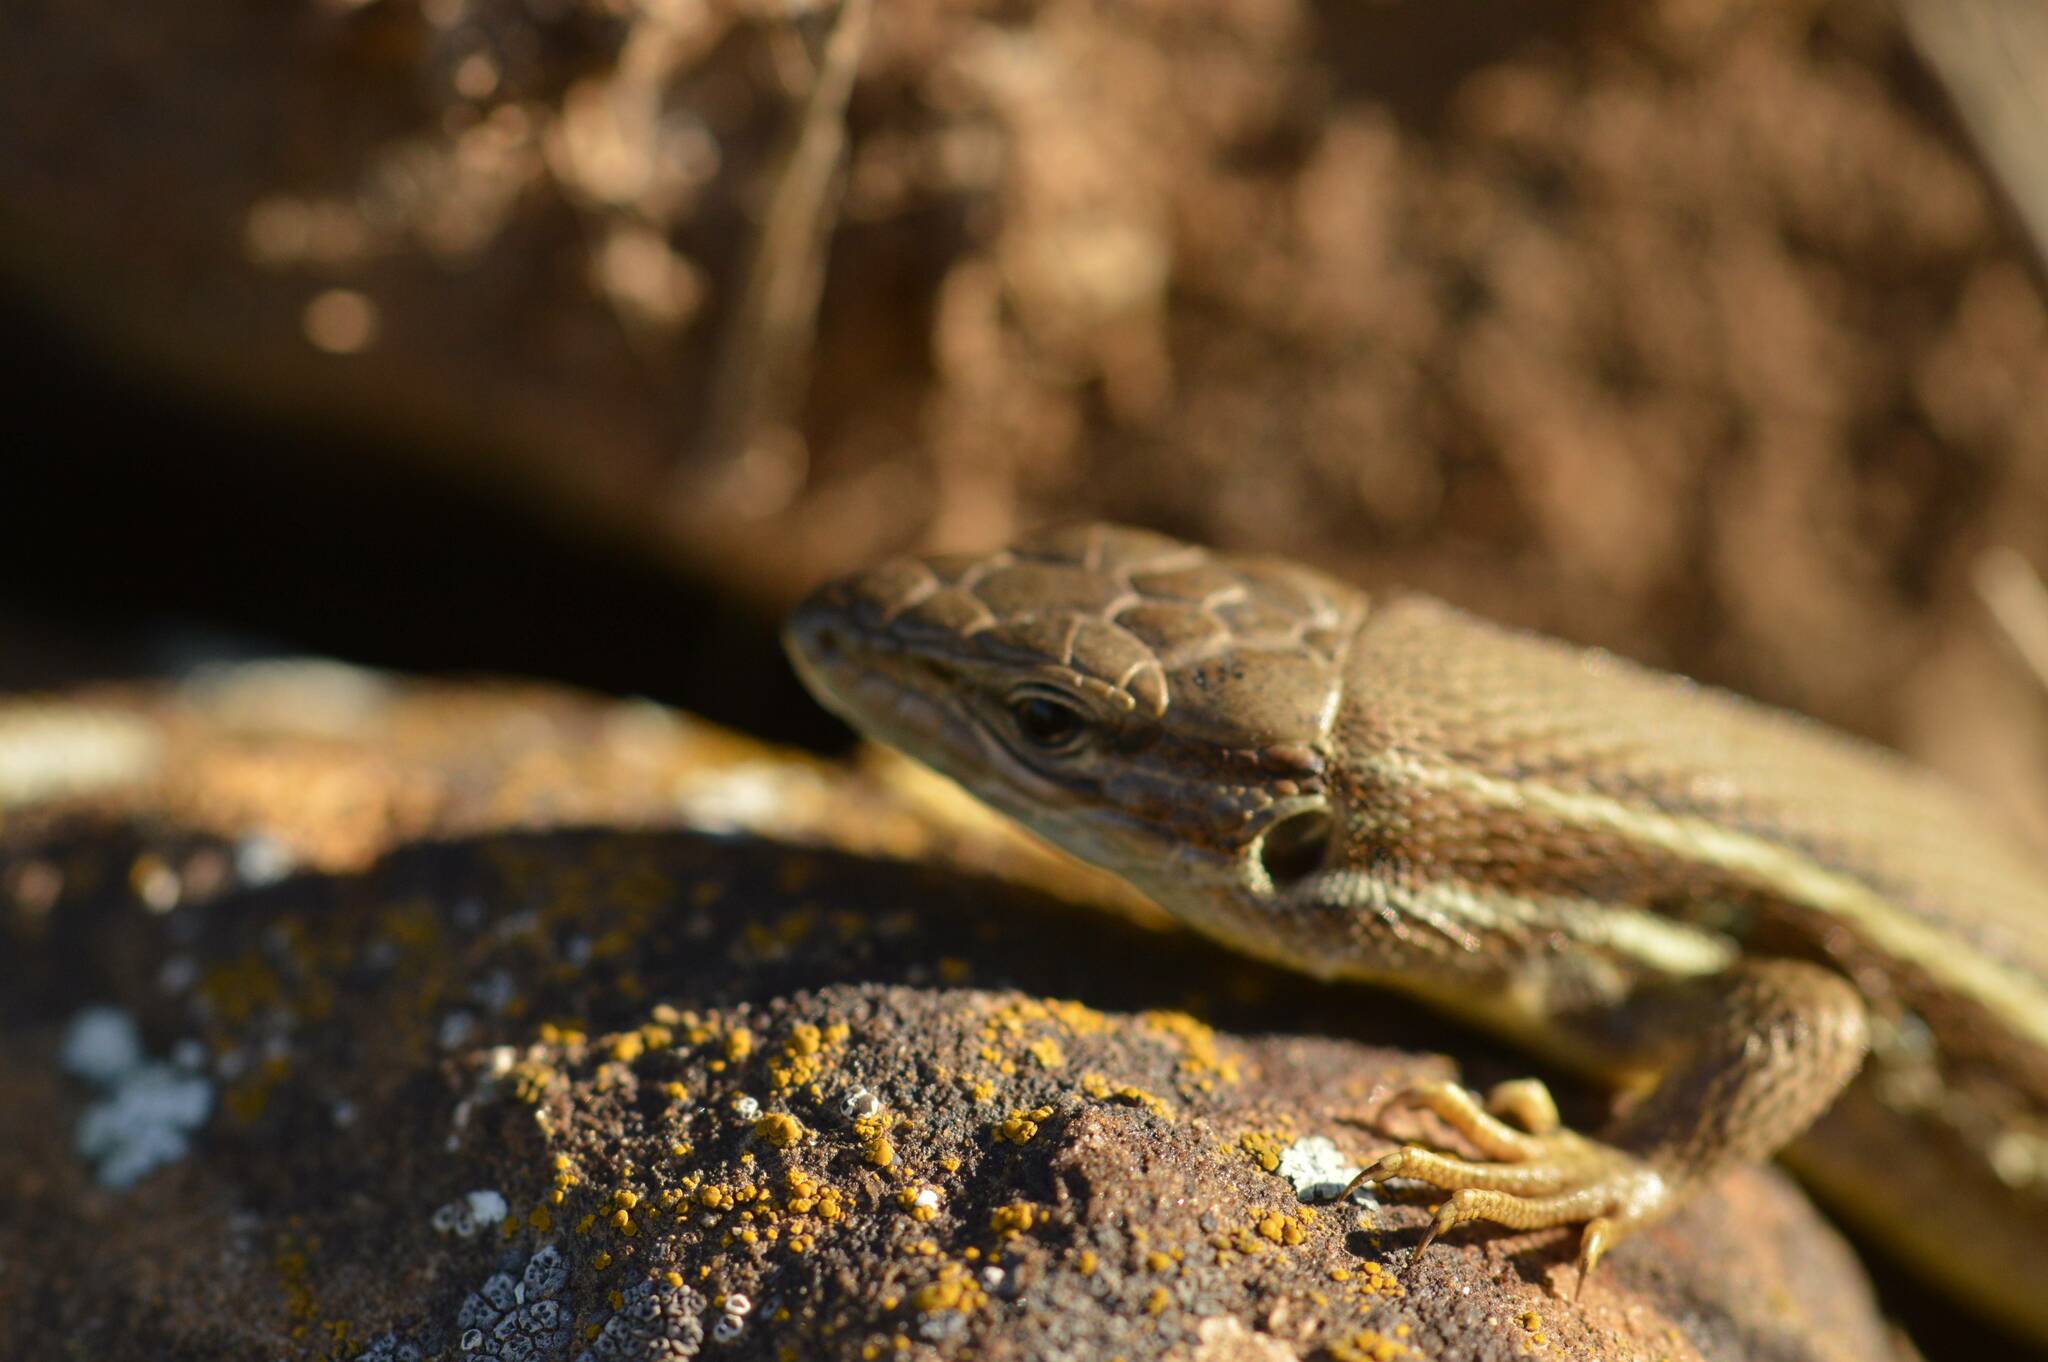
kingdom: Animalia
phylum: Chordata
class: Squamata
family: Lacertidae
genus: Psammodromus
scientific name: Psammodromus algirus
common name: Algerian psammodromus
